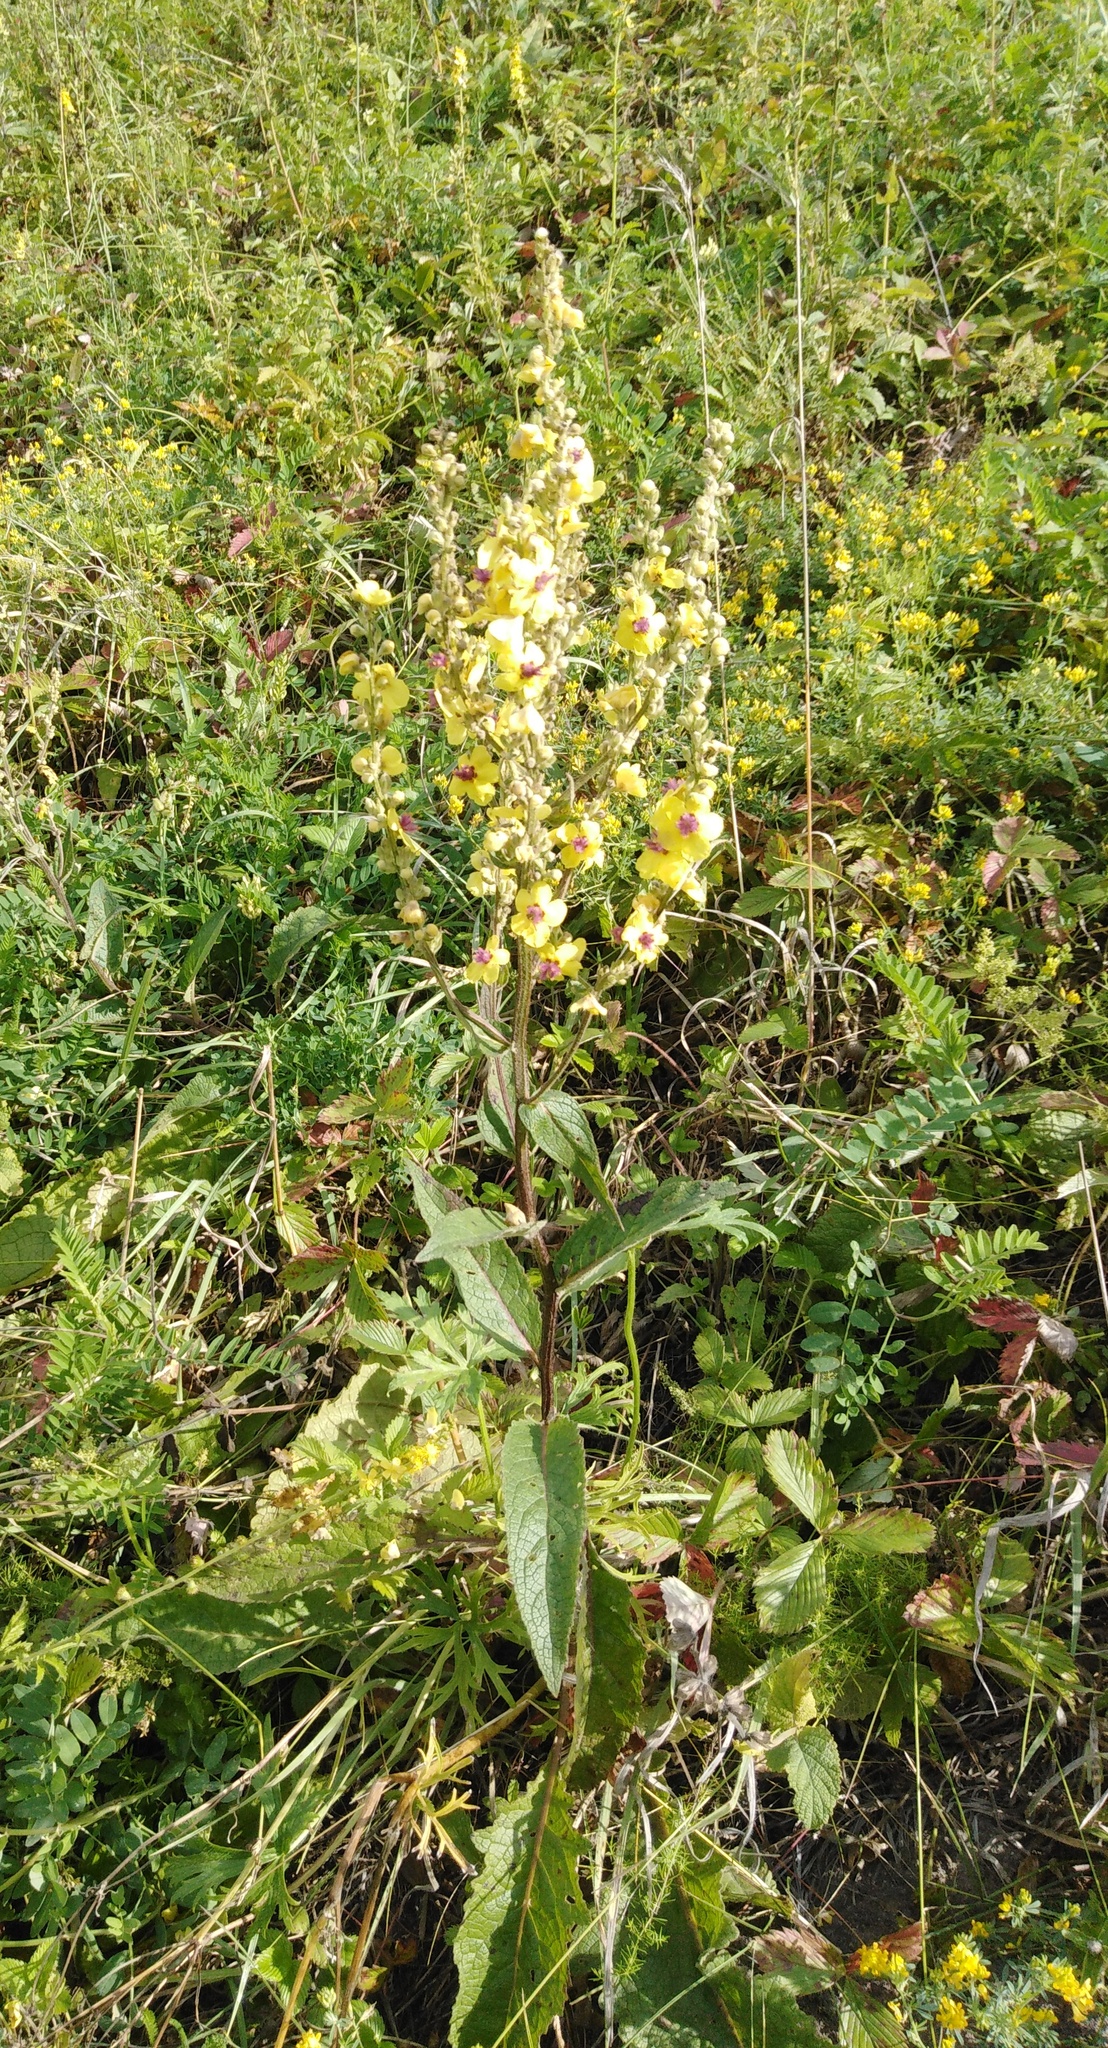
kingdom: Plantae
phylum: Tracheophyta
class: Magnoliopsida
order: Lamiales
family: Scrophulariaceae
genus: Verbascum
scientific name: Verbascum chaixii
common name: Nettle-leaved mullein
